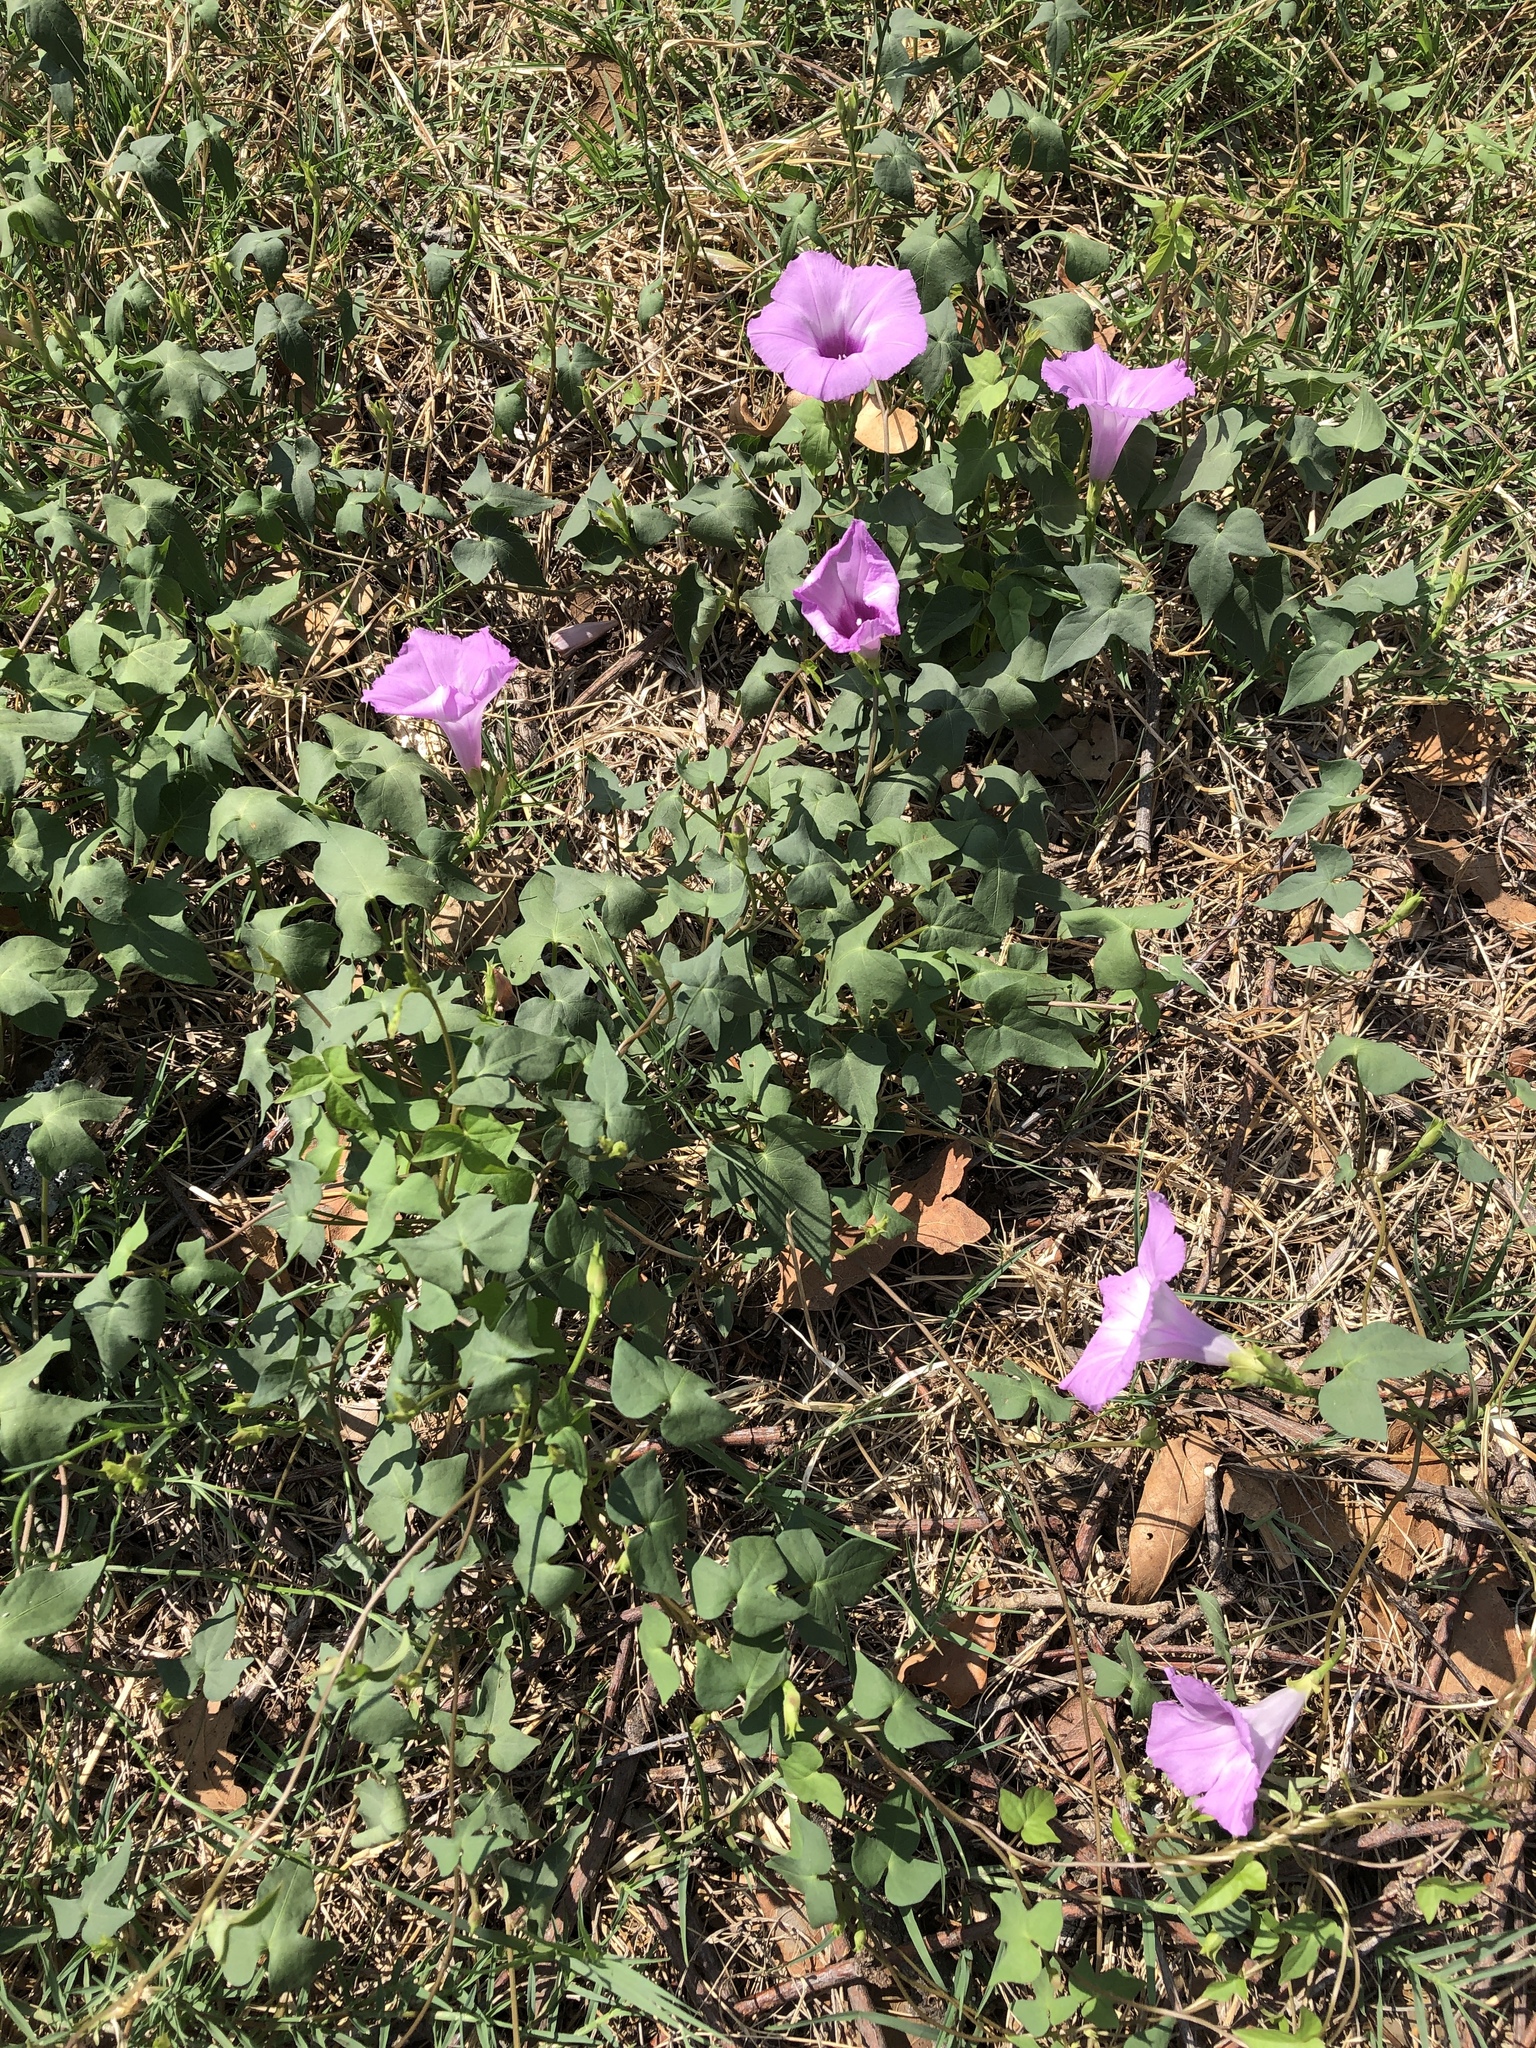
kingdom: Plantae
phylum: Tracheophyta
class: Magnoliopsida
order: Solanales
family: Convolvulaceae
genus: Ipomoea
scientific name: Ipomoea cordatotriloba
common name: Cotton morning glory
